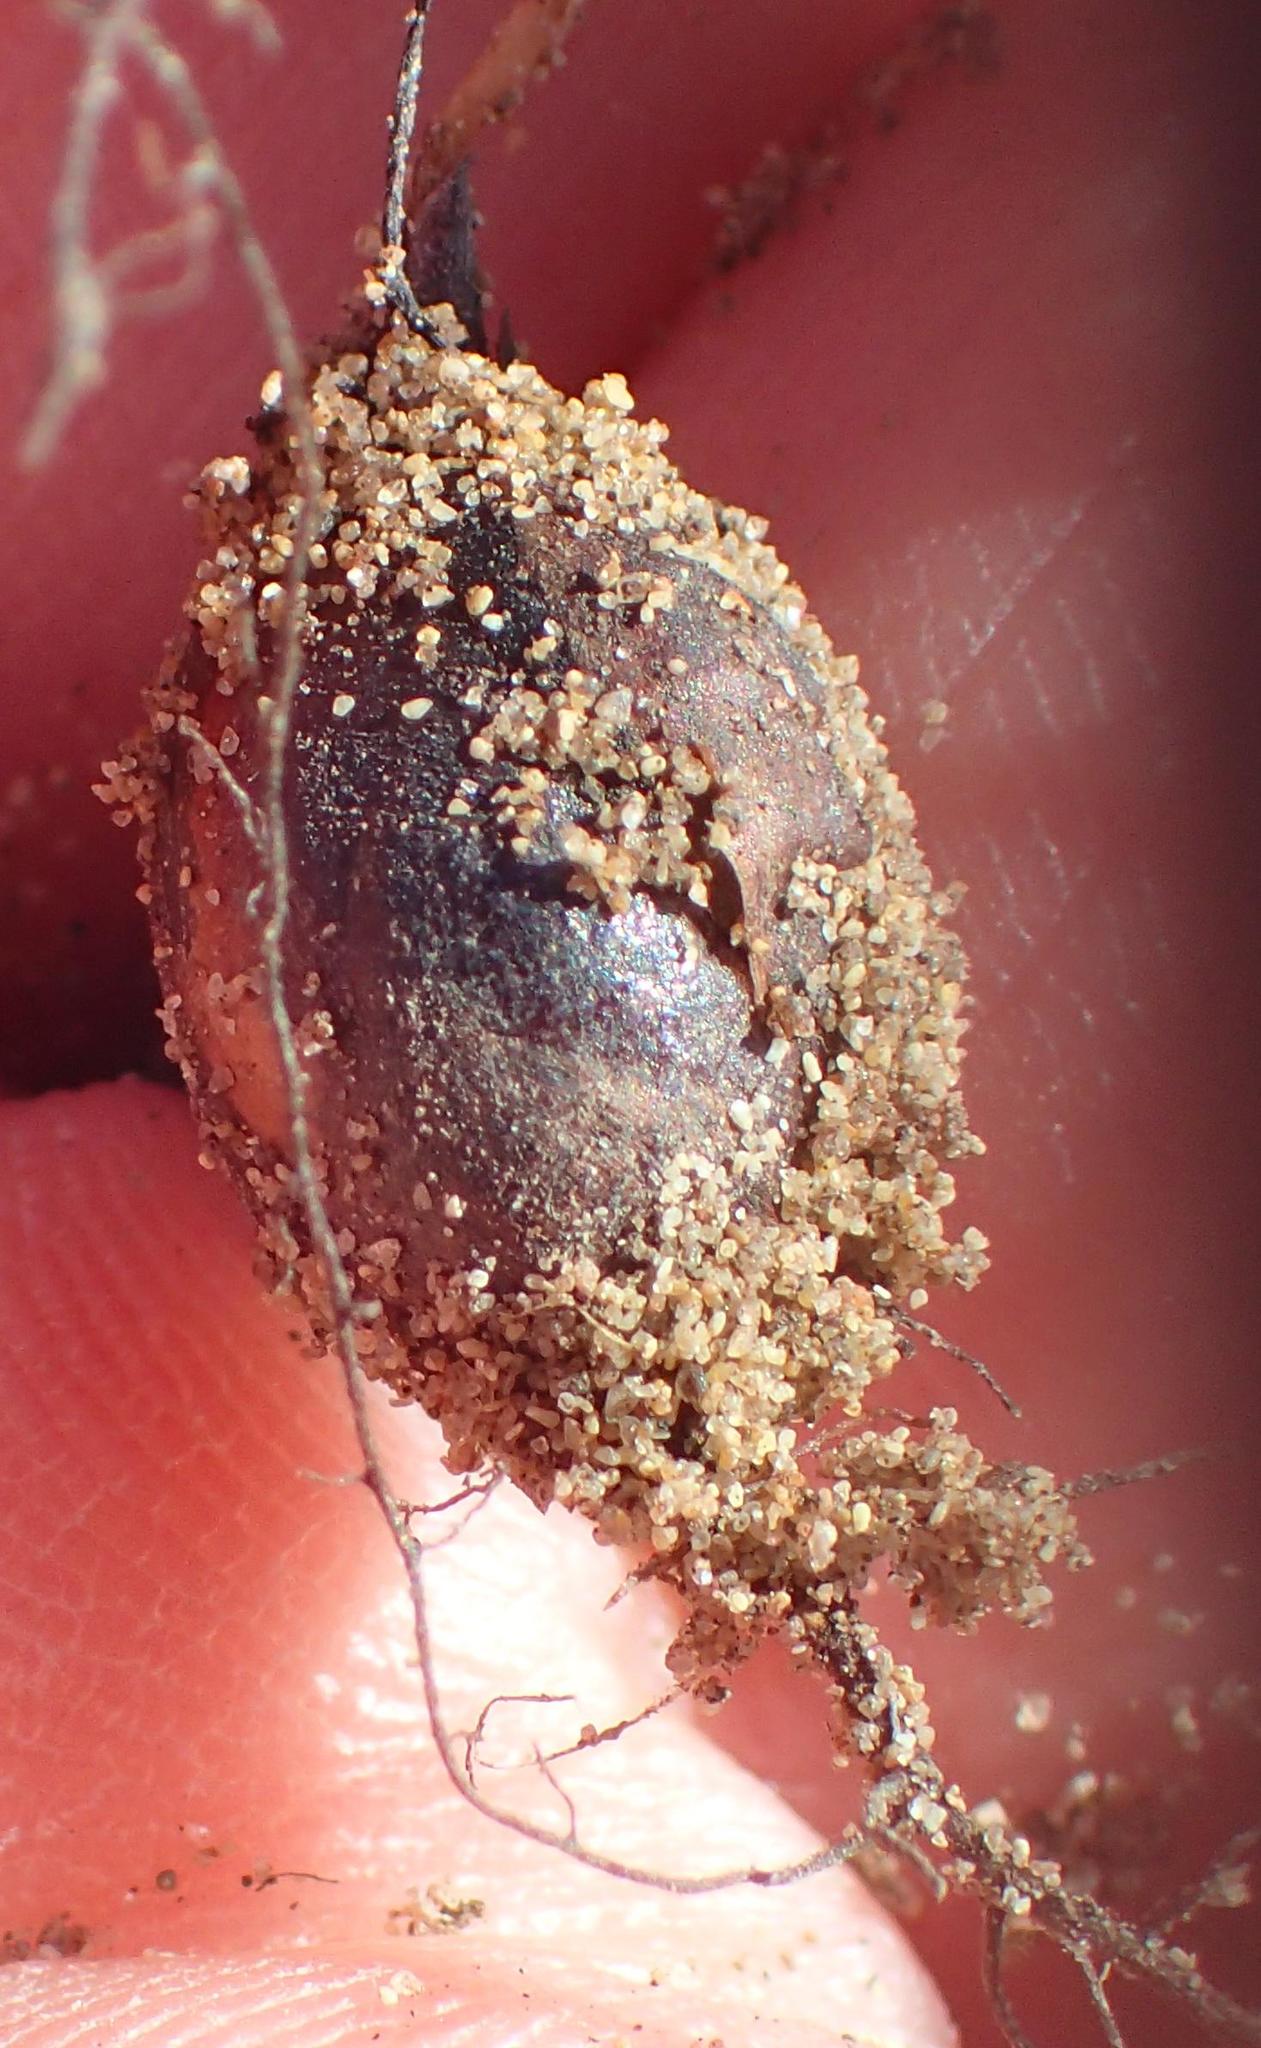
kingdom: Plantae
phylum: Tracheophyta
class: Magnoliopsida
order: Oxalidales
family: Oxalidaceae
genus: Oxalis
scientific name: Oxalis polyphylla
